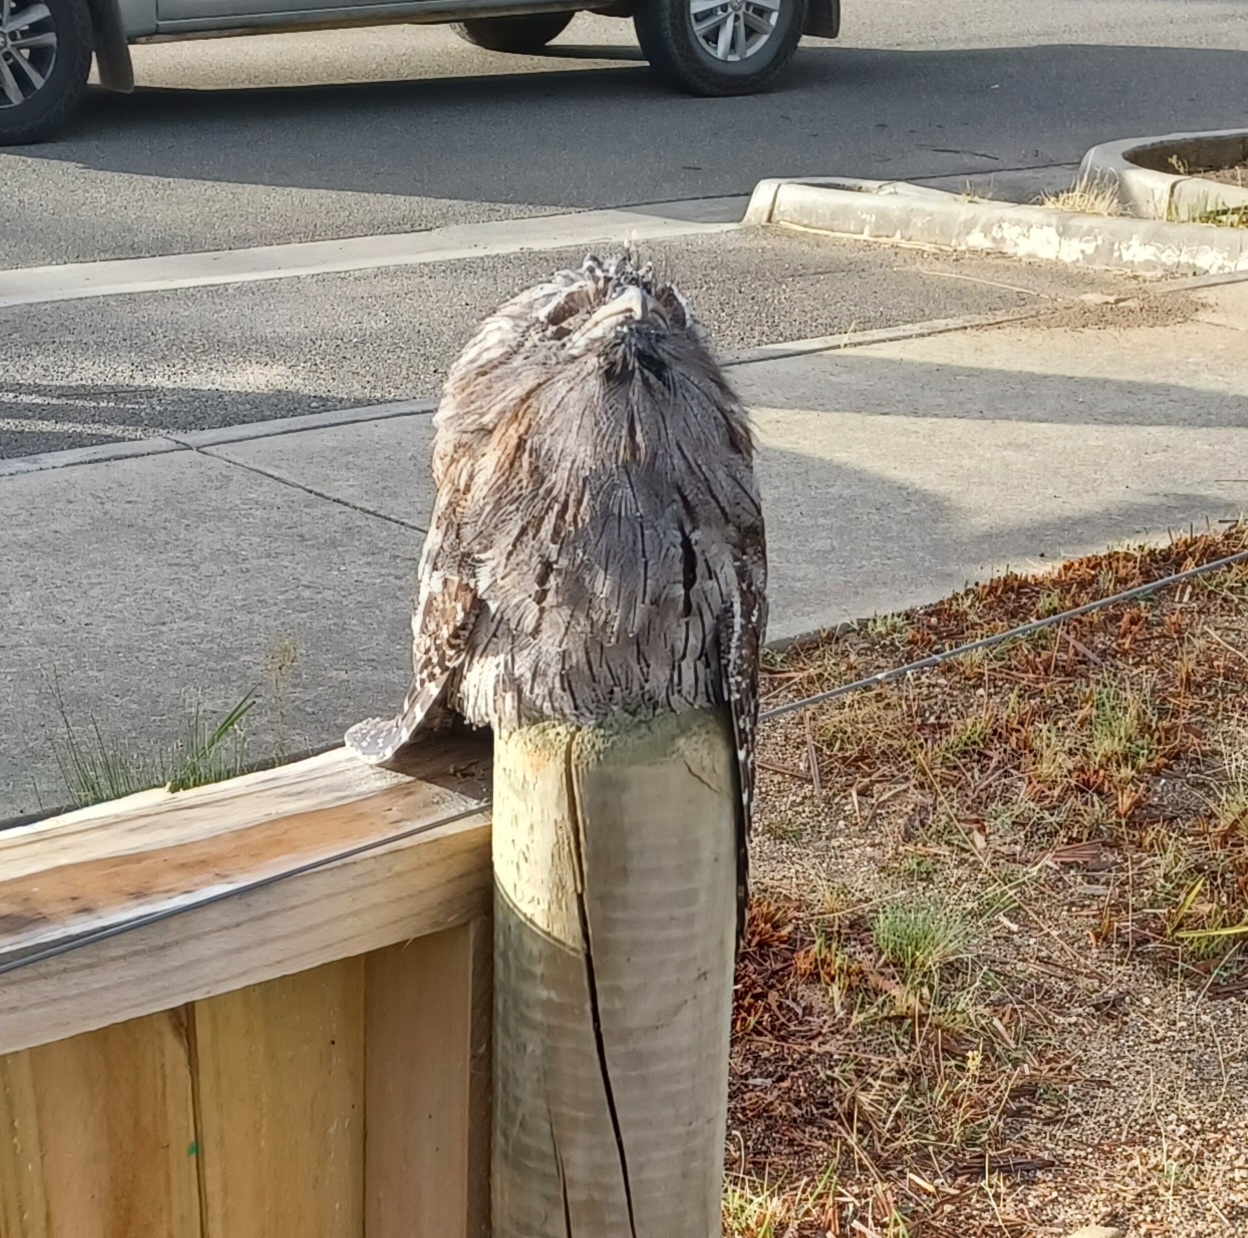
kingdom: Animalia
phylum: Chordata
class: Aves
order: Caprimulgiformes
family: Podargidae
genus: Podargus
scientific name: Podargus strigoides
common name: Tawny frogmouth
